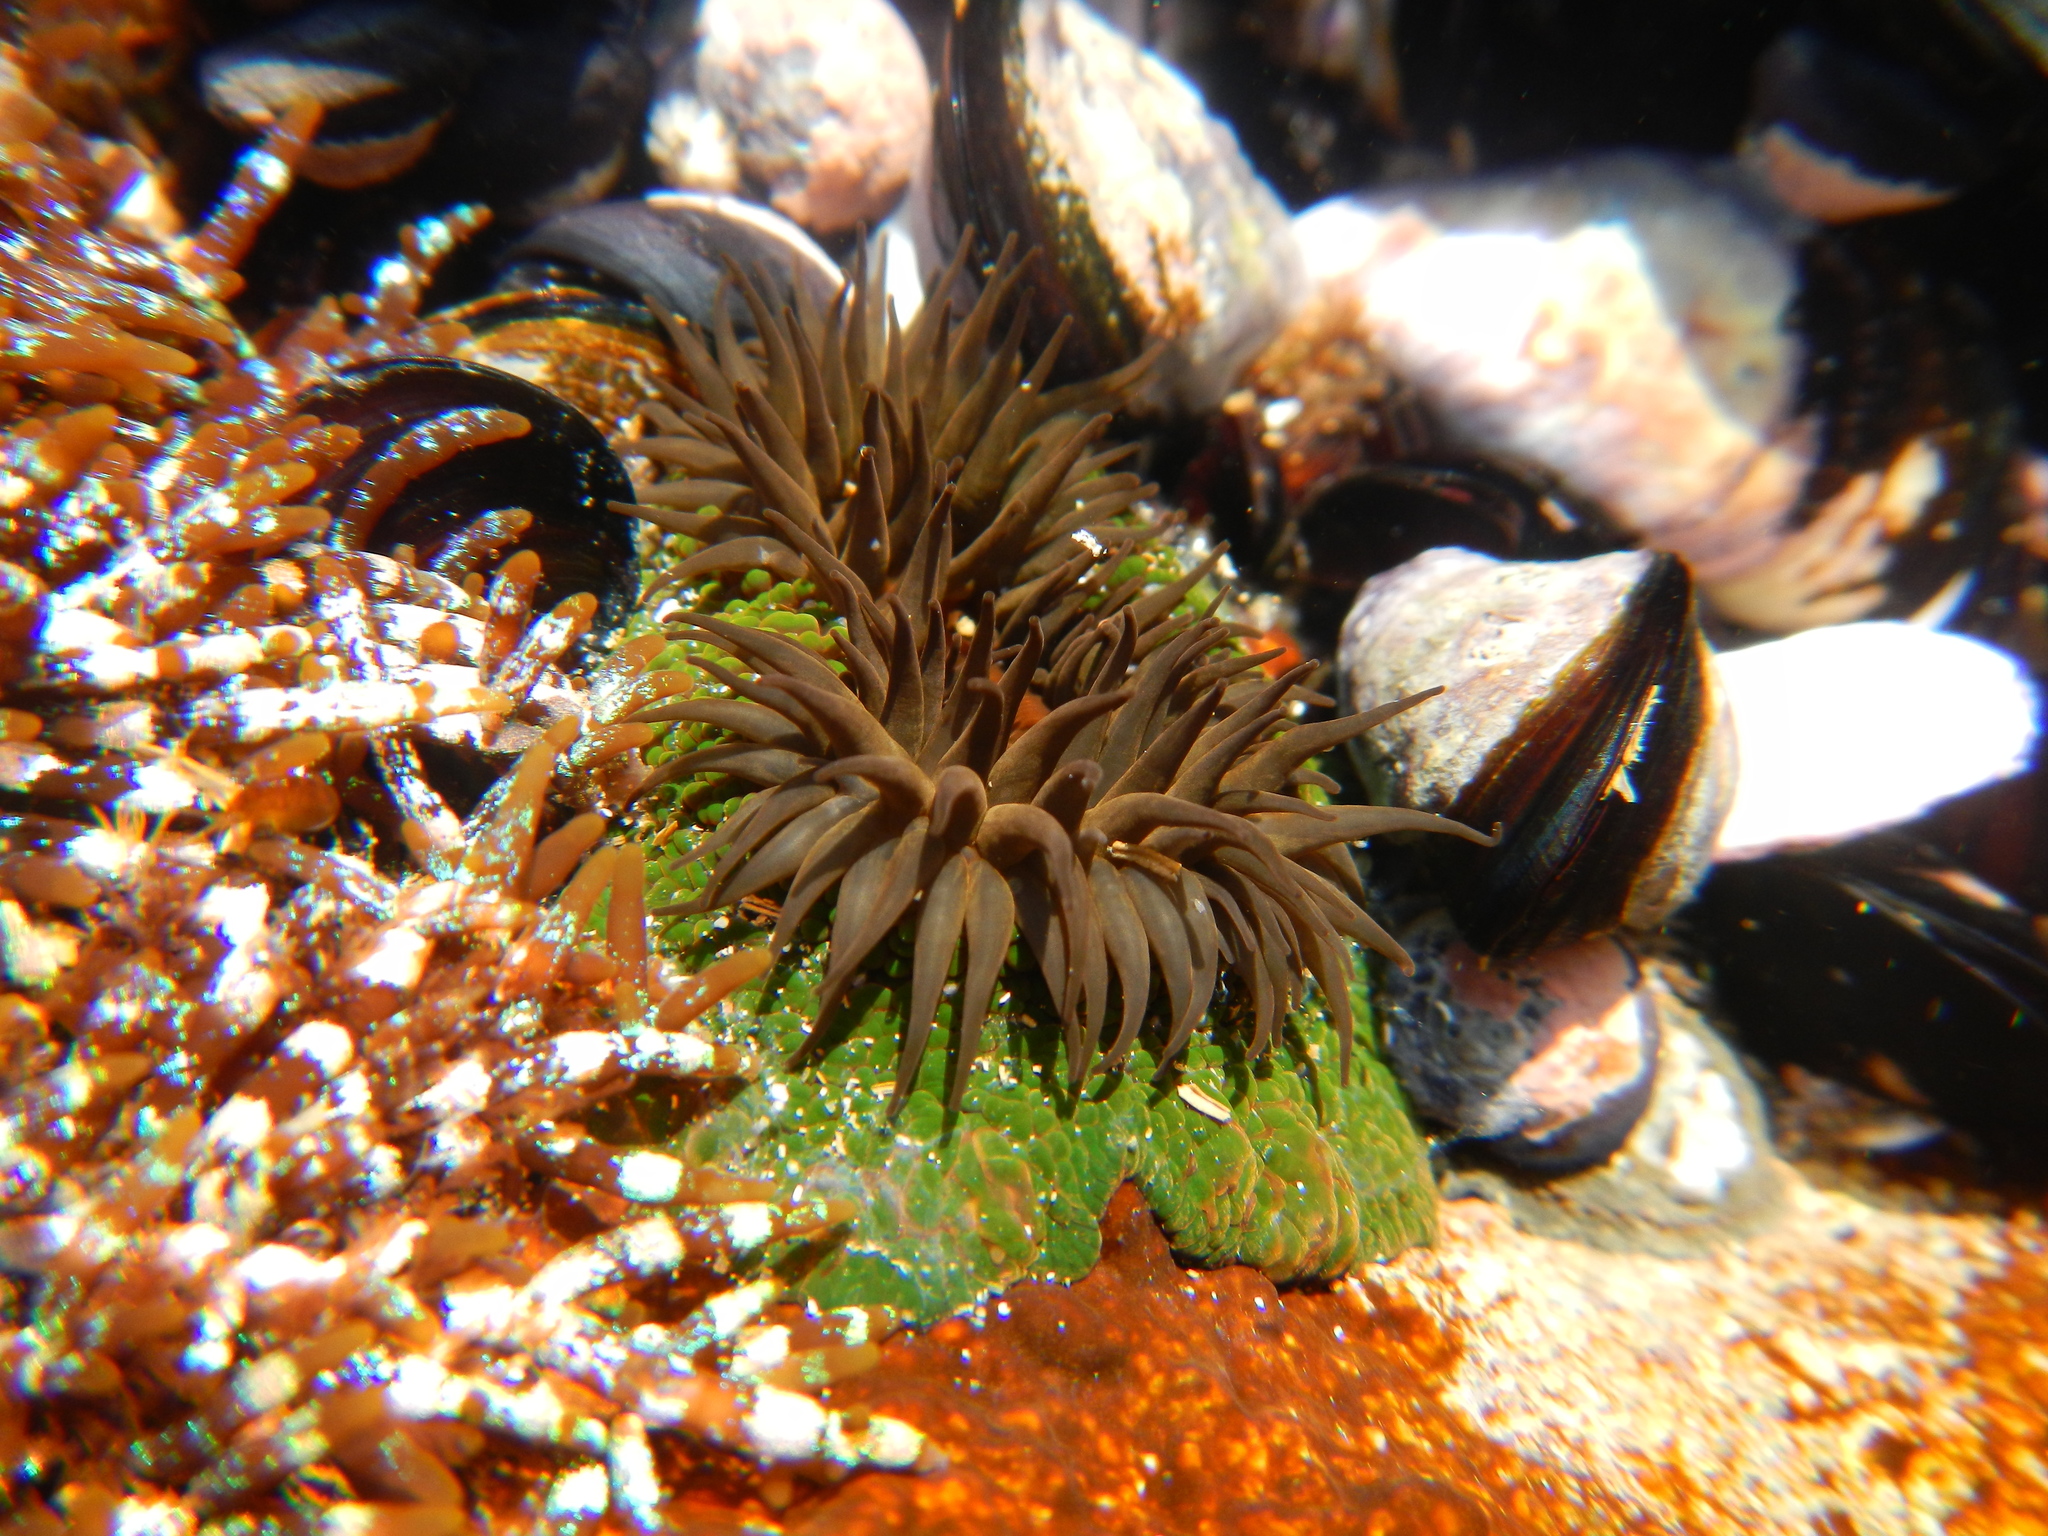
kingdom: Animalia
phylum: Cnidaria
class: Anthozoa
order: Actiniaria
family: Actiniidae
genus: Phymactis
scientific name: Phymactis papillosa
